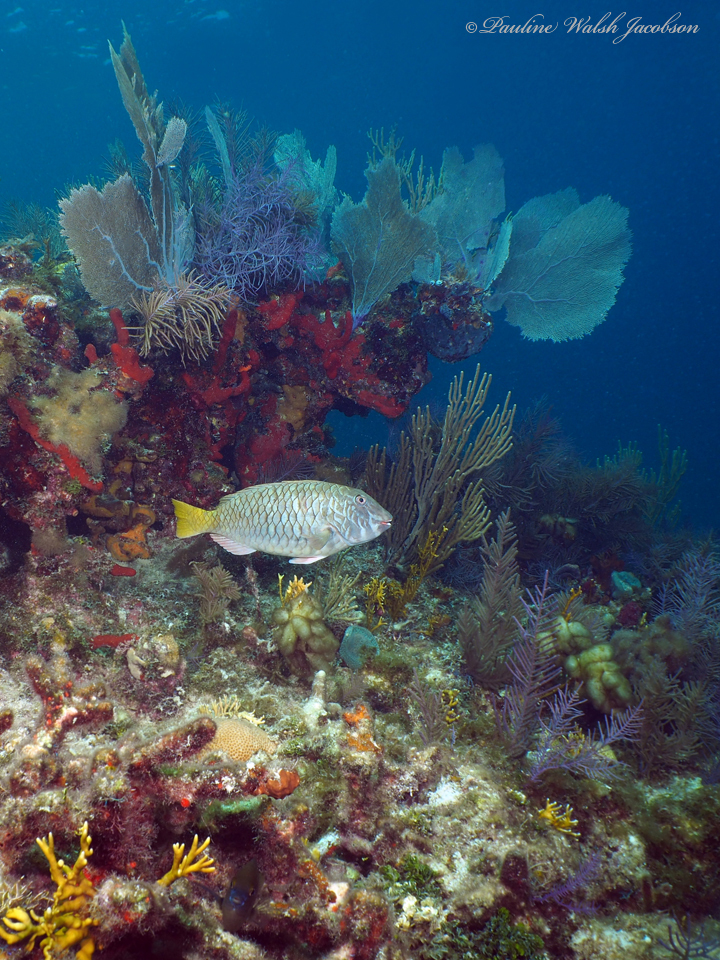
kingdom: Animalia
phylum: Chordata
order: Perciformes
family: Scaridae
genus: Sparisoma
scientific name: Sparisoma rubripinne
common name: Redfin parrotfish
